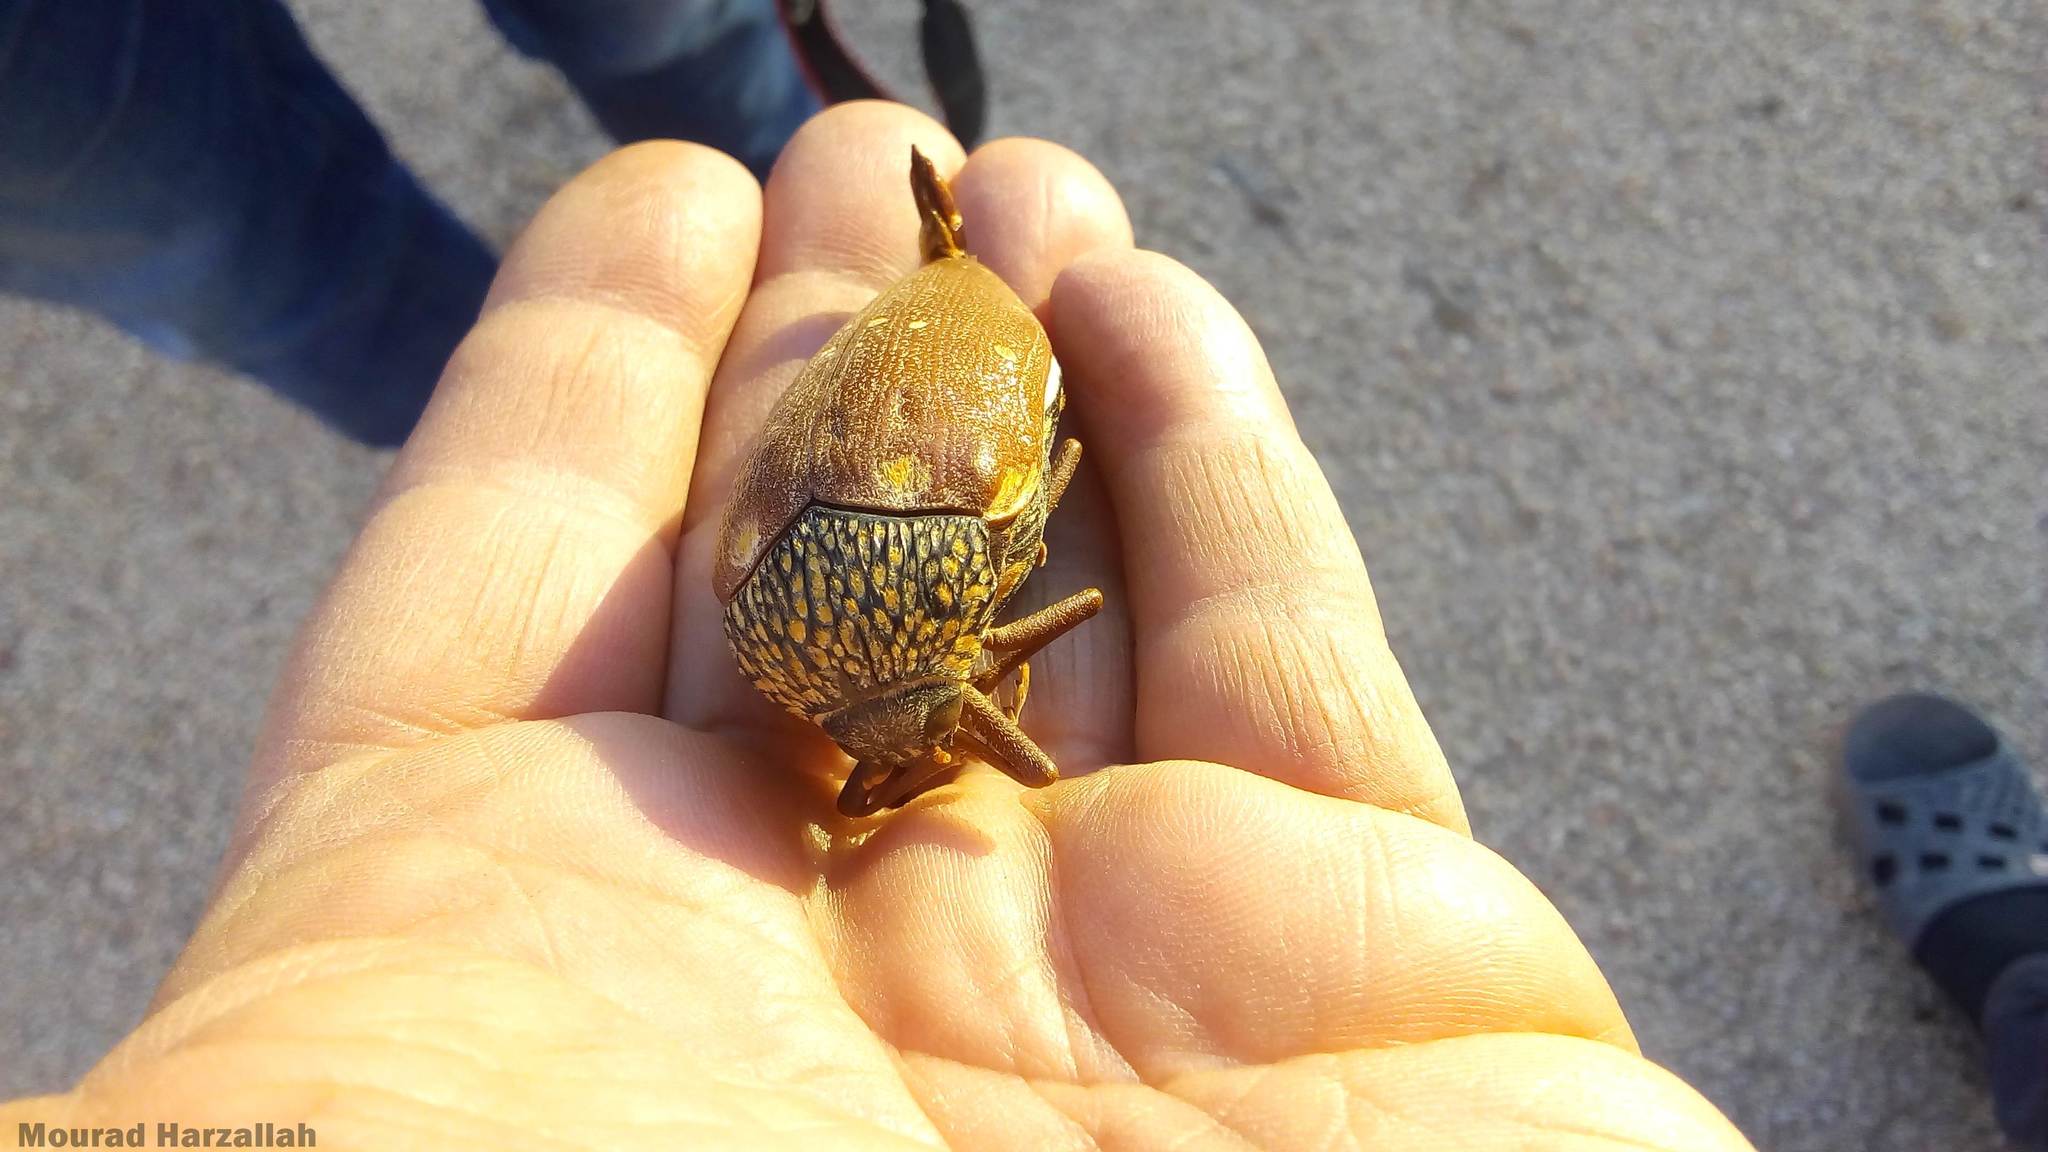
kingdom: Animalia
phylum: Arthropoda
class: Insecta
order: Coleoptera
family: Buprestidae
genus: Sternocera
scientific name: Sternocera castanea
